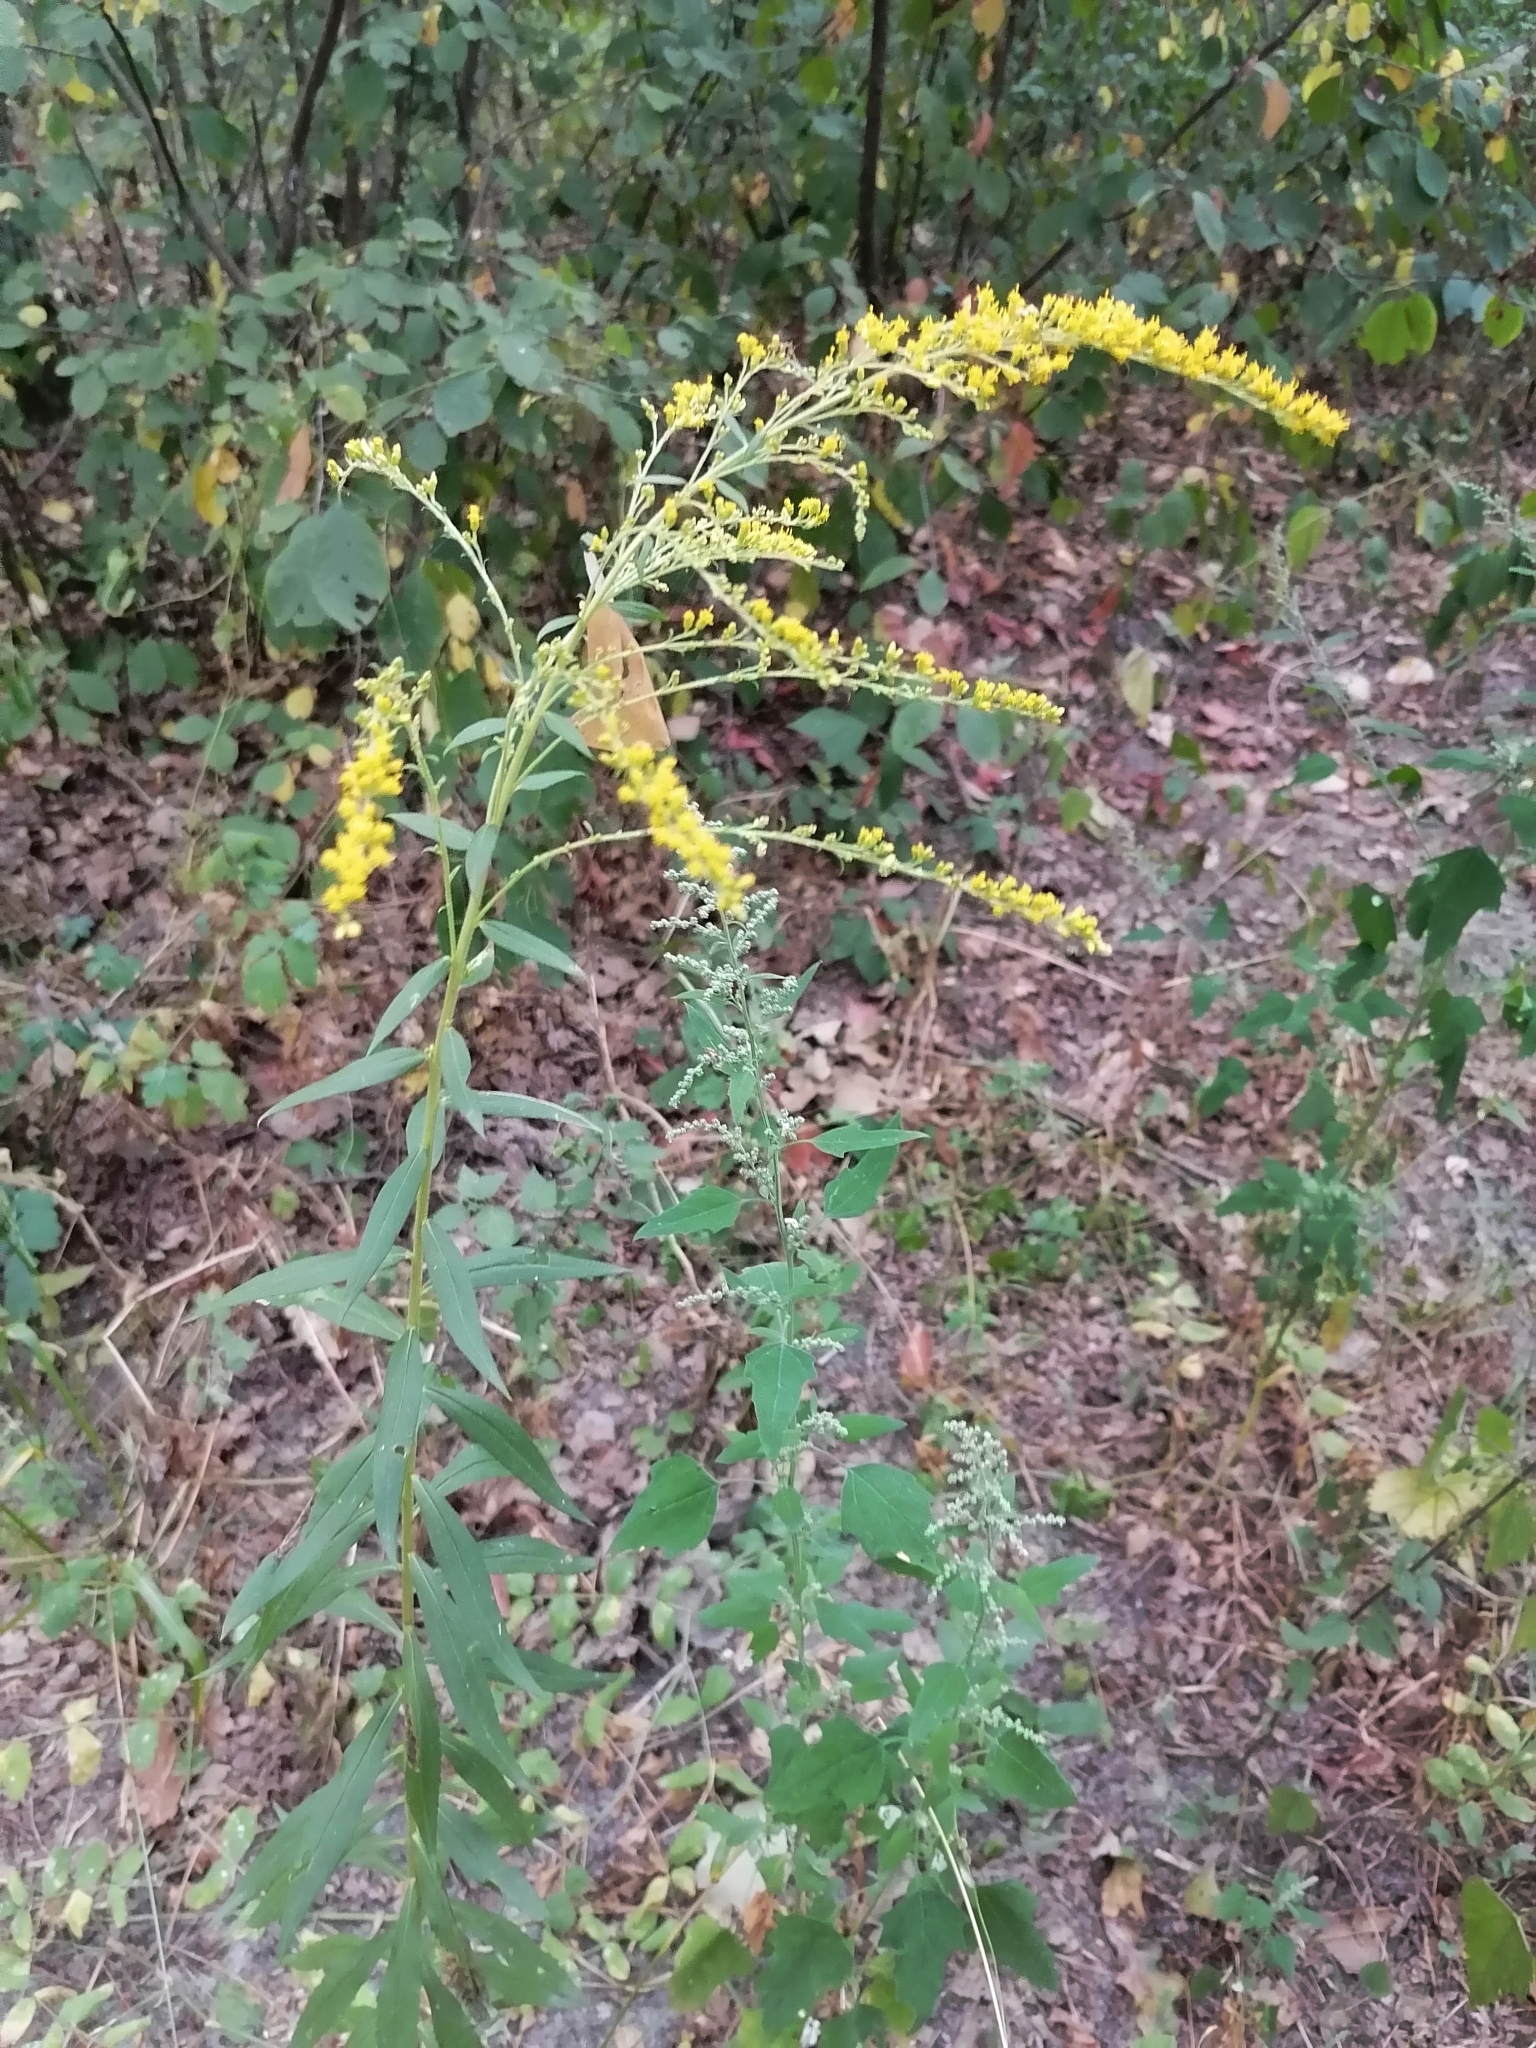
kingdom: Plantae
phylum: Tracheophyta
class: Magnoliopsida
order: Asterales
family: Asteraceae
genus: Solidago
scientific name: Solidago canadensis
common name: Canada goldenrod
